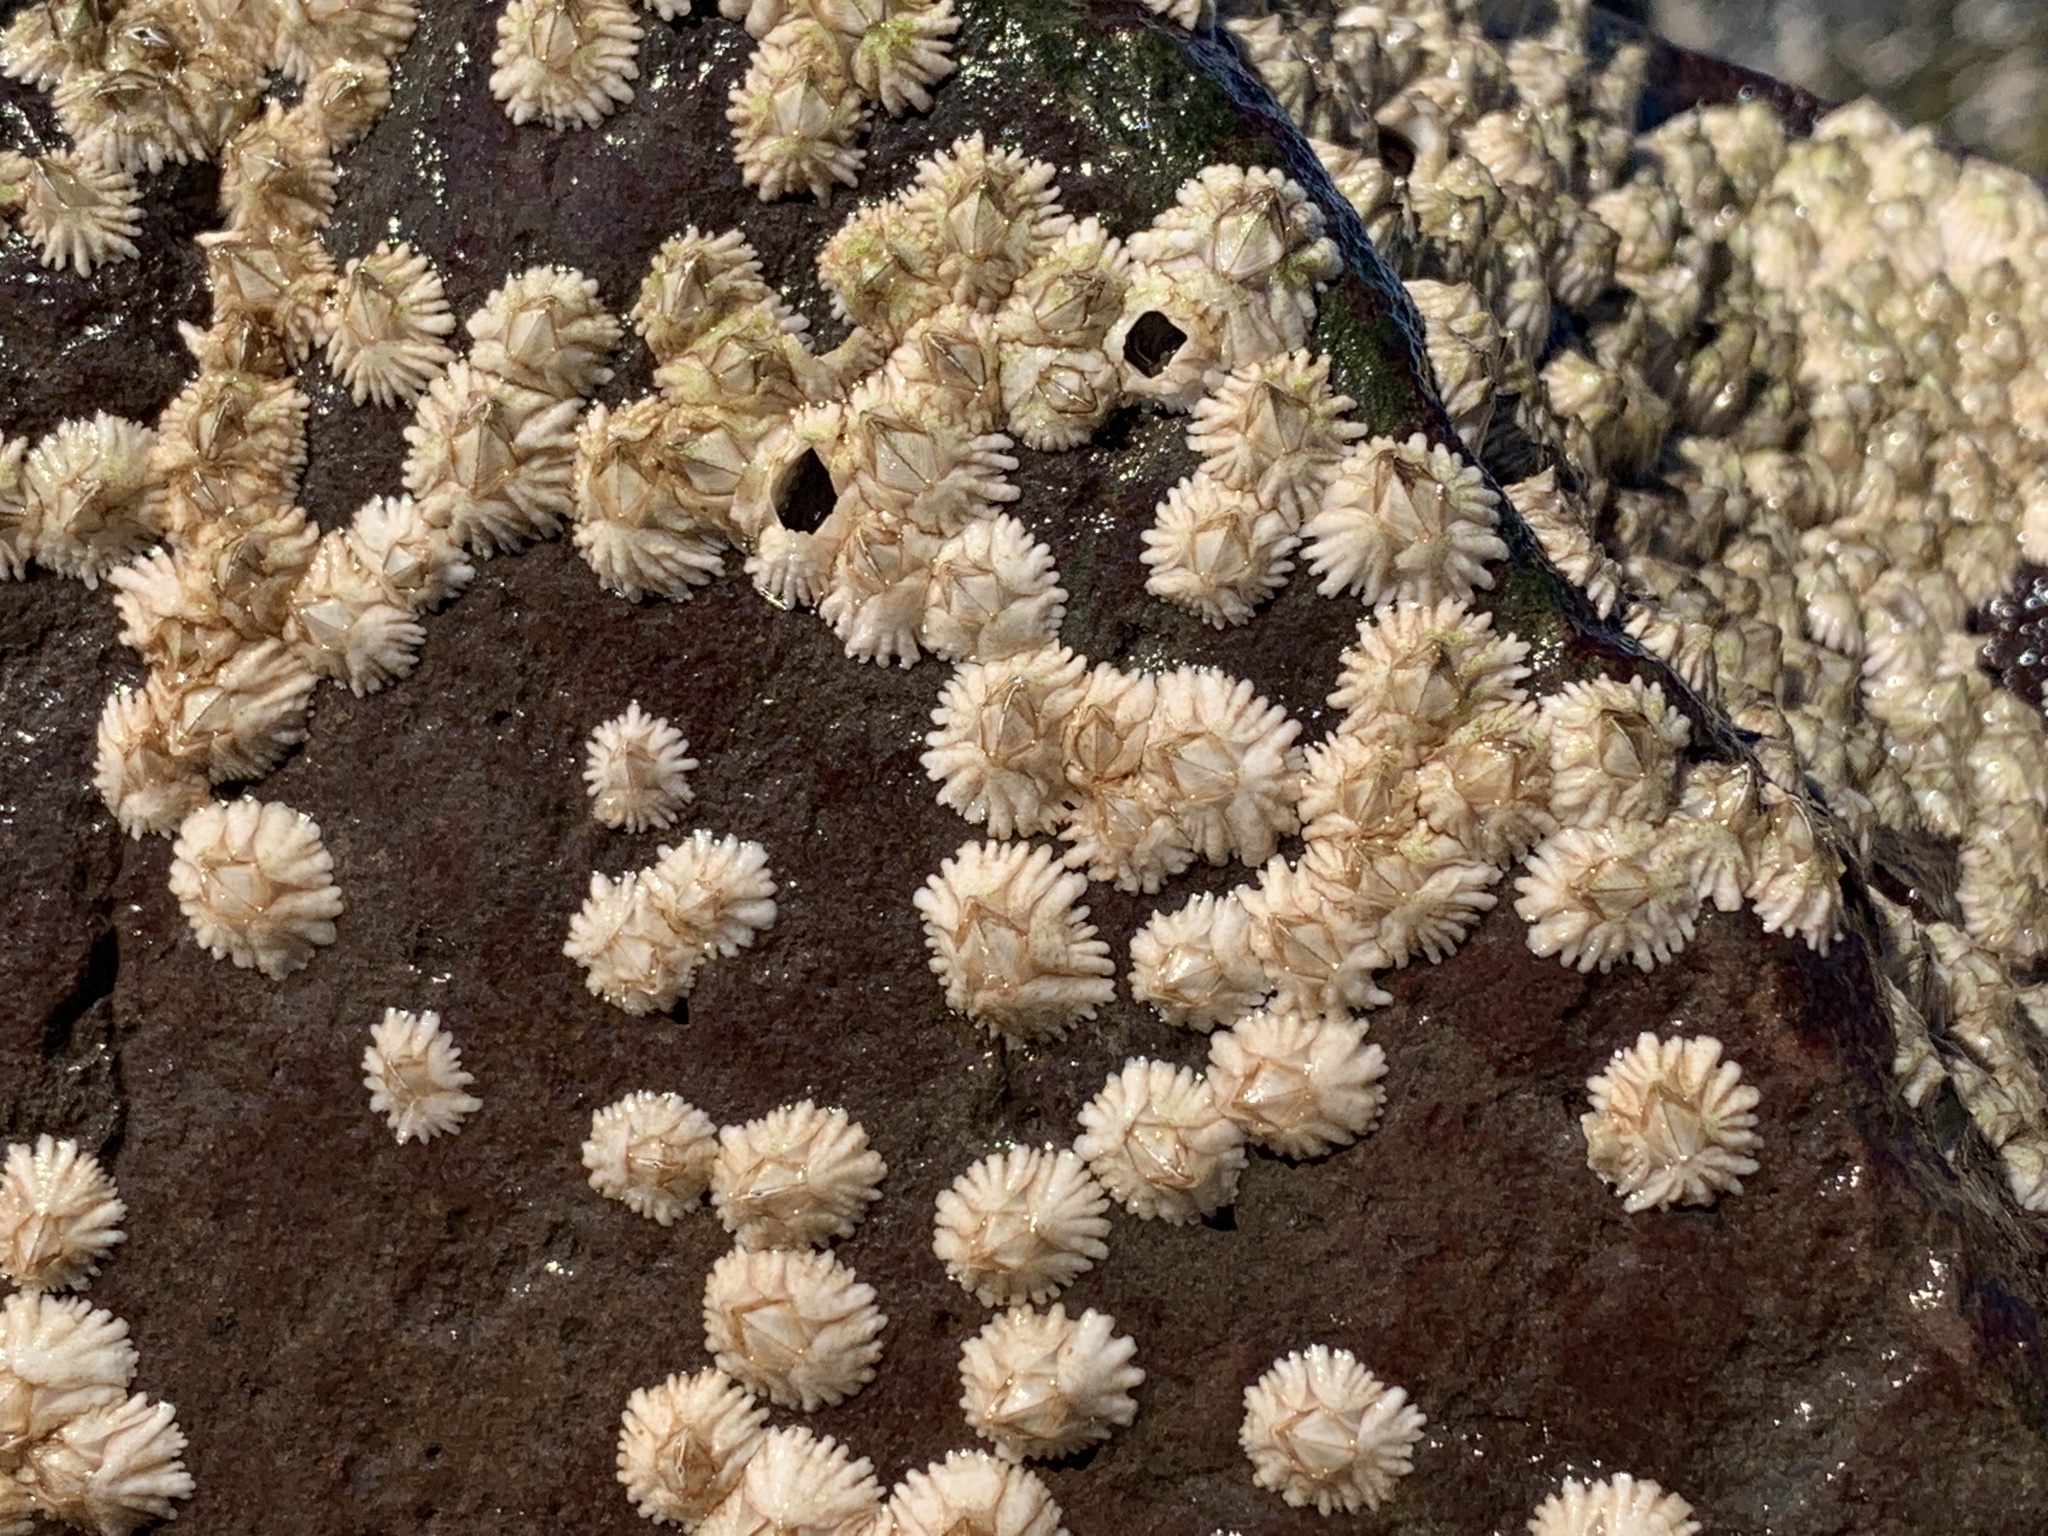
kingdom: Animalia
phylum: Arthropoda
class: Maxillopoda
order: Sessilia
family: Archaeobalanidae
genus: Semibalanus
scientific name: Semibalanus balanoides
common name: Acorn barnacle
